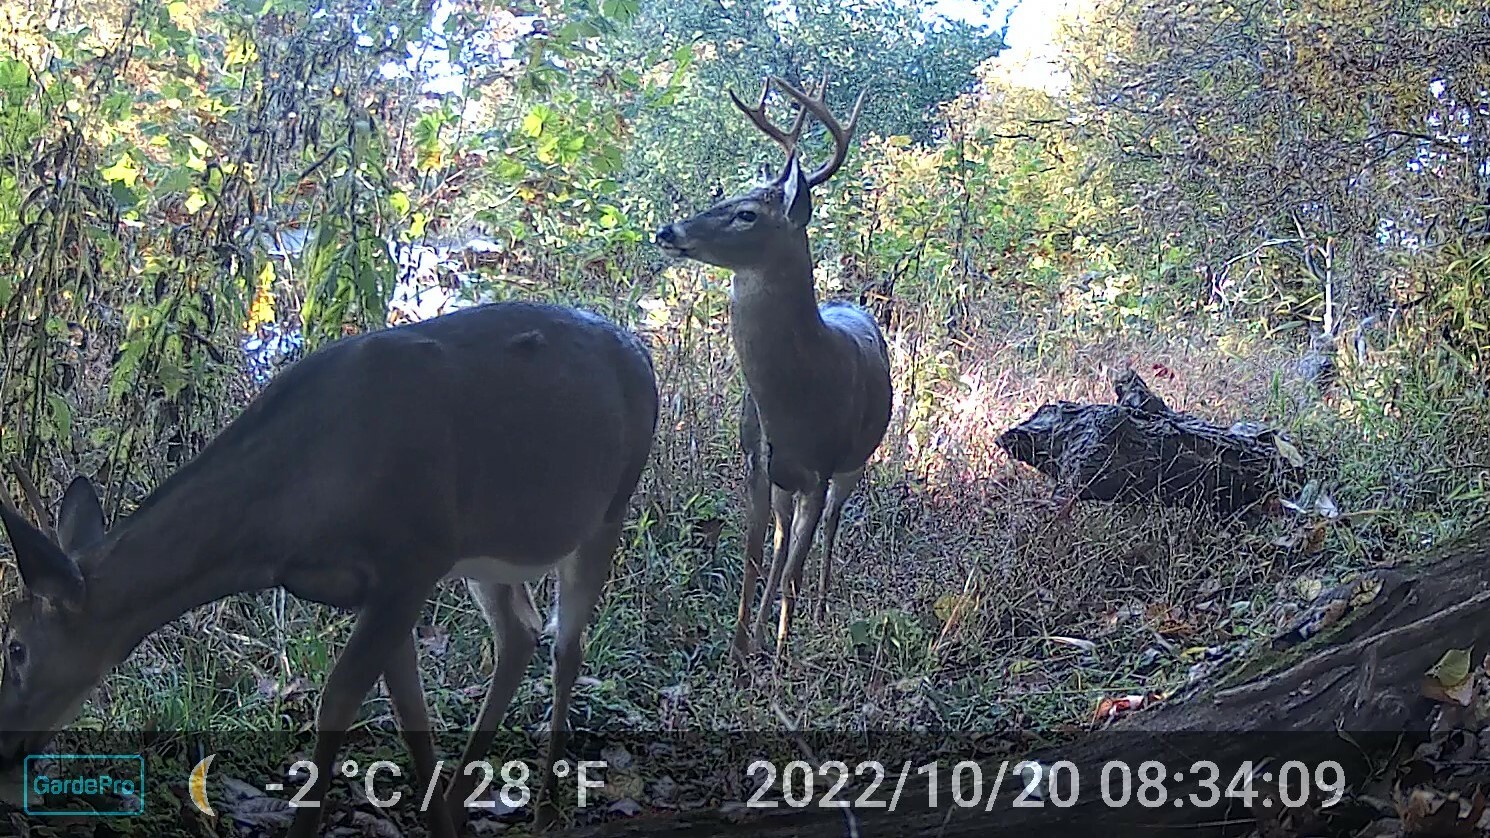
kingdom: Animalia
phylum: Chordata
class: Mammalia
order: Artiodactyla
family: Cervidae
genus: Odocoileus
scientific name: Odocoileus virginianus
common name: White-tailed deer
